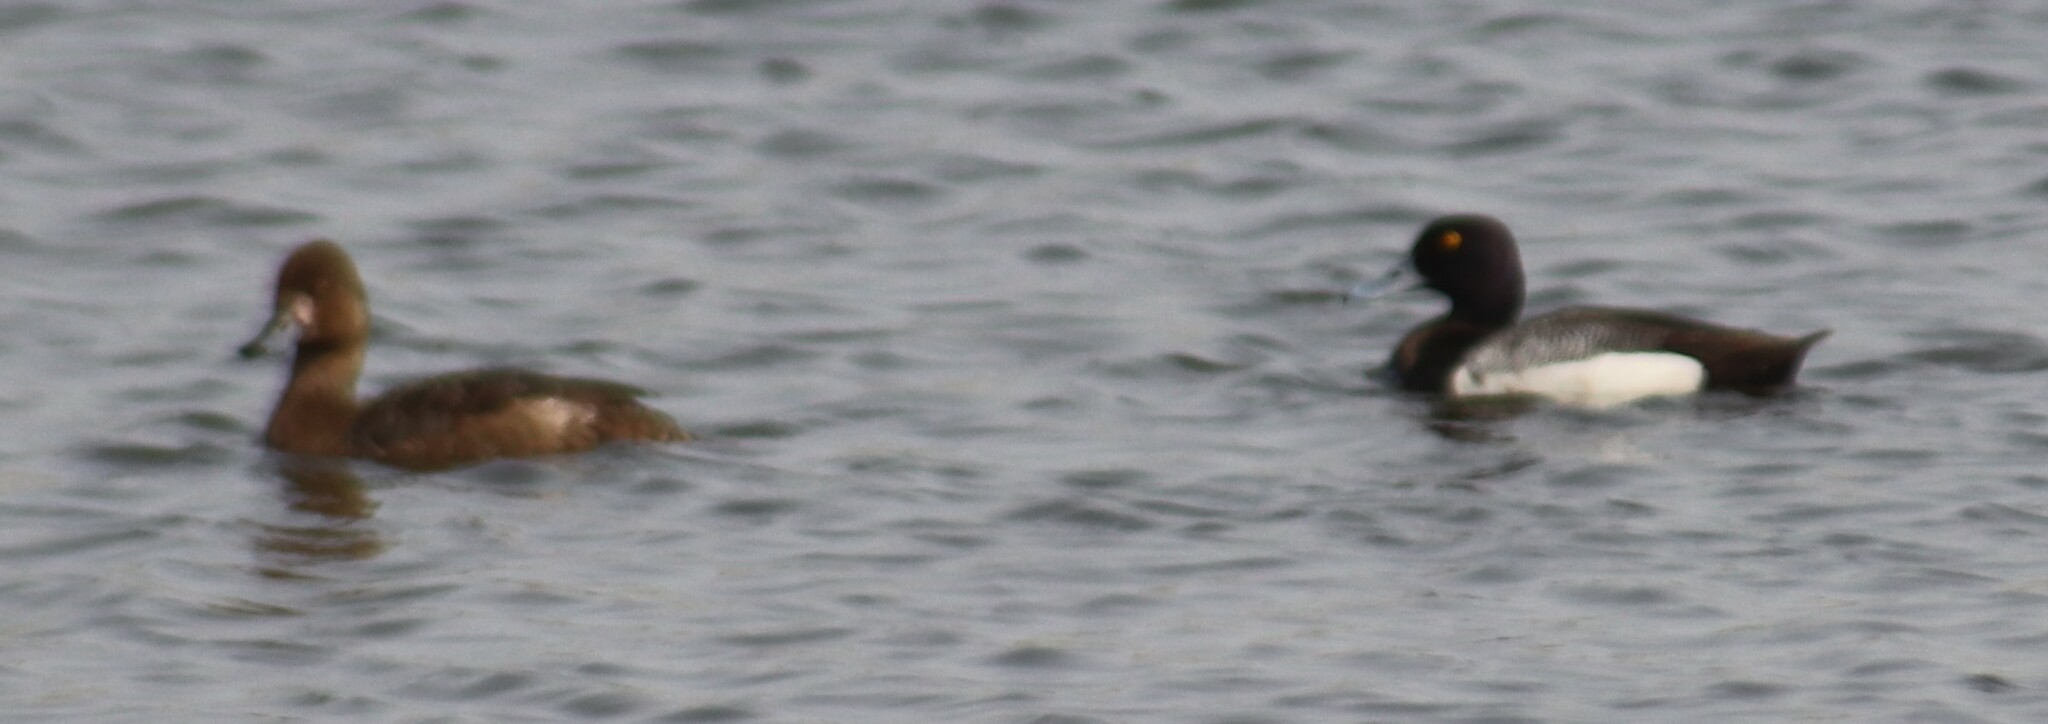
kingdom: Animalia
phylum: Chordata
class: Aves
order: Anseriformes
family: Anatidae
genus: Aythya
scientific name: Aythya affinis
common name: Lesser scaup
